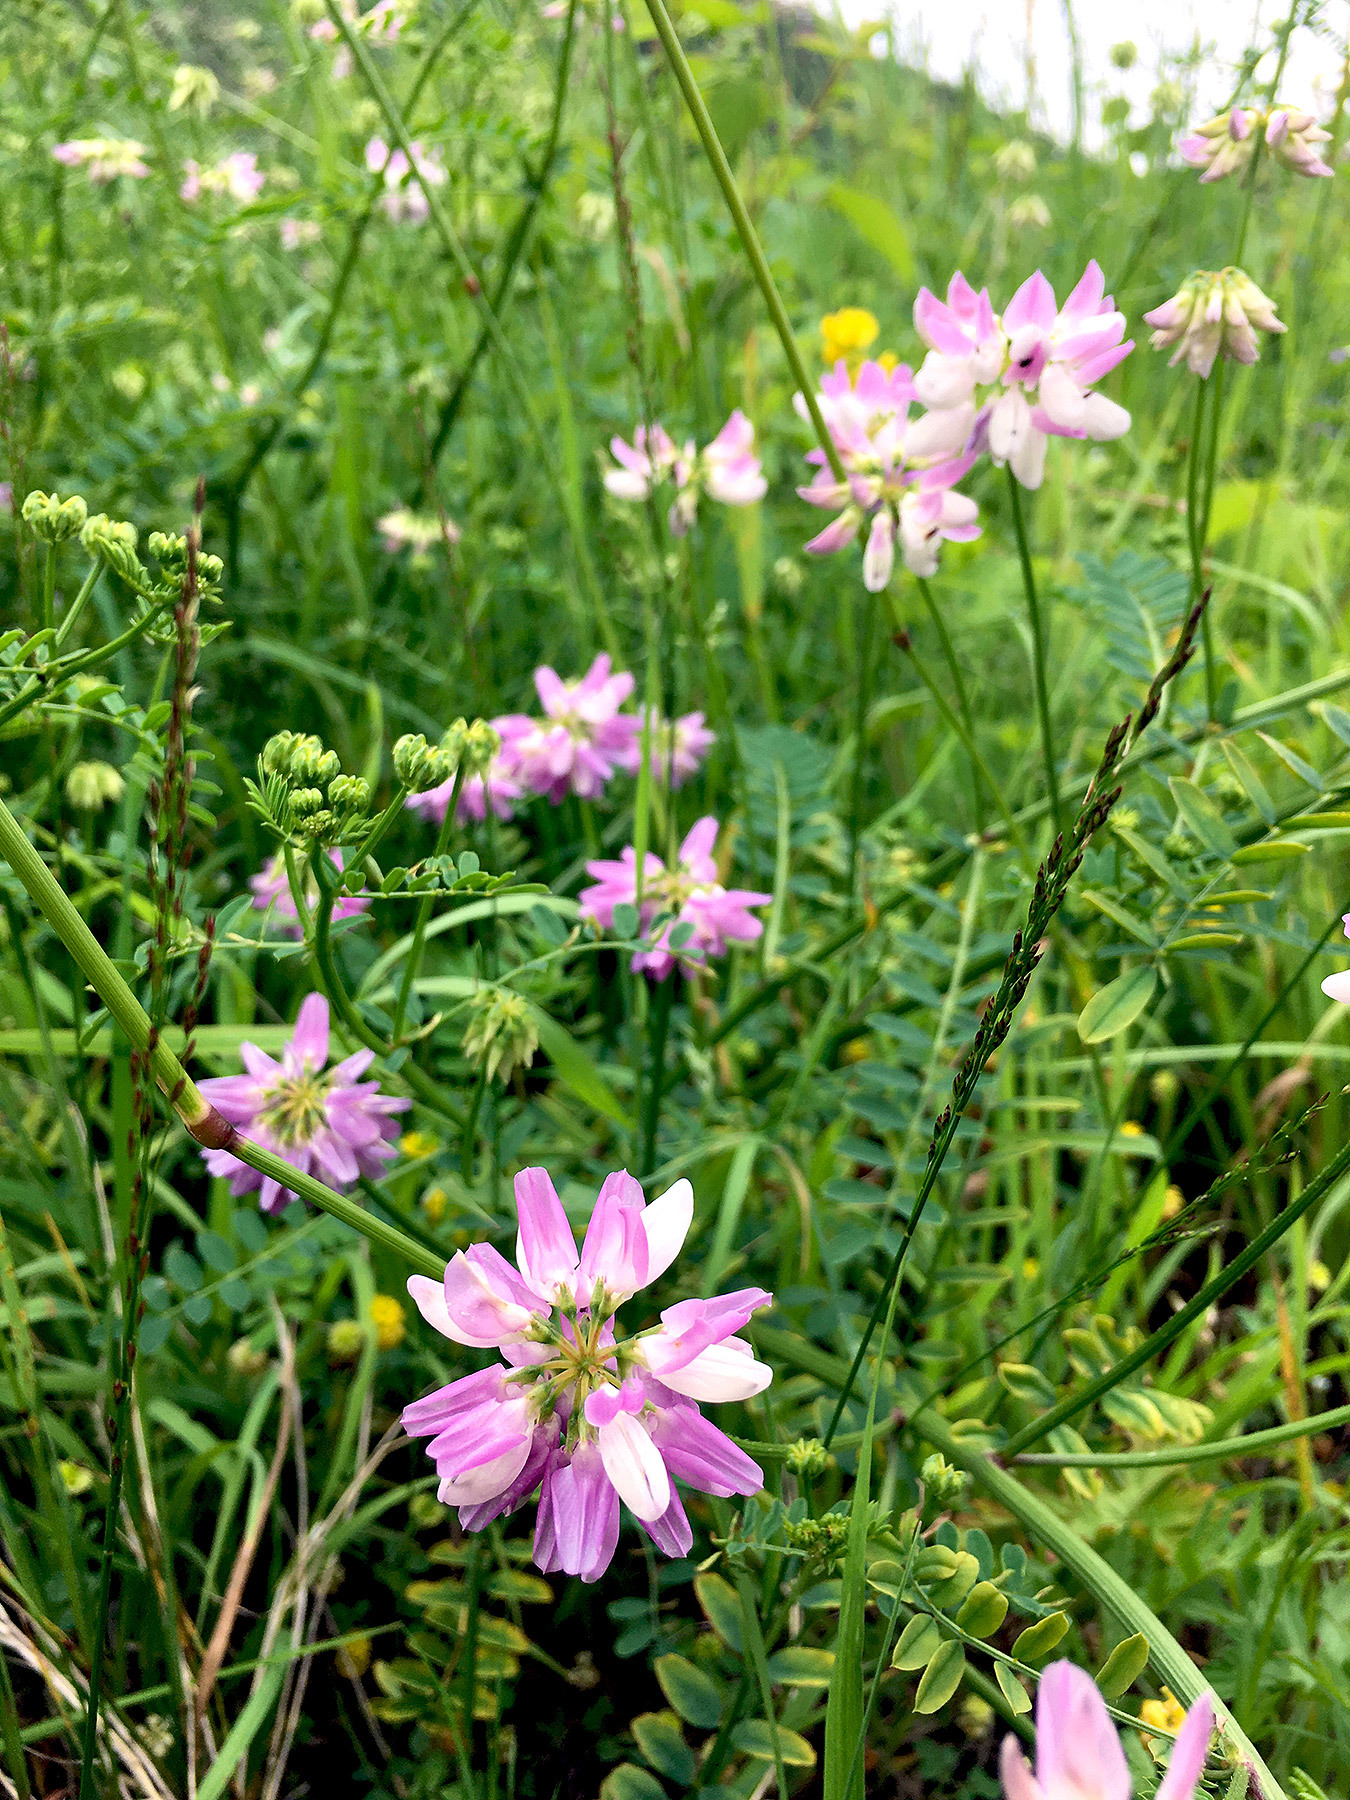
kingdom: Plantae
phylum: Tracheophyta
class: Magnoliopsida
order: Fabales
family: Fabaceae
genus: Coronilla
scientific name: Coronilla varia
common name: Crownvetch
